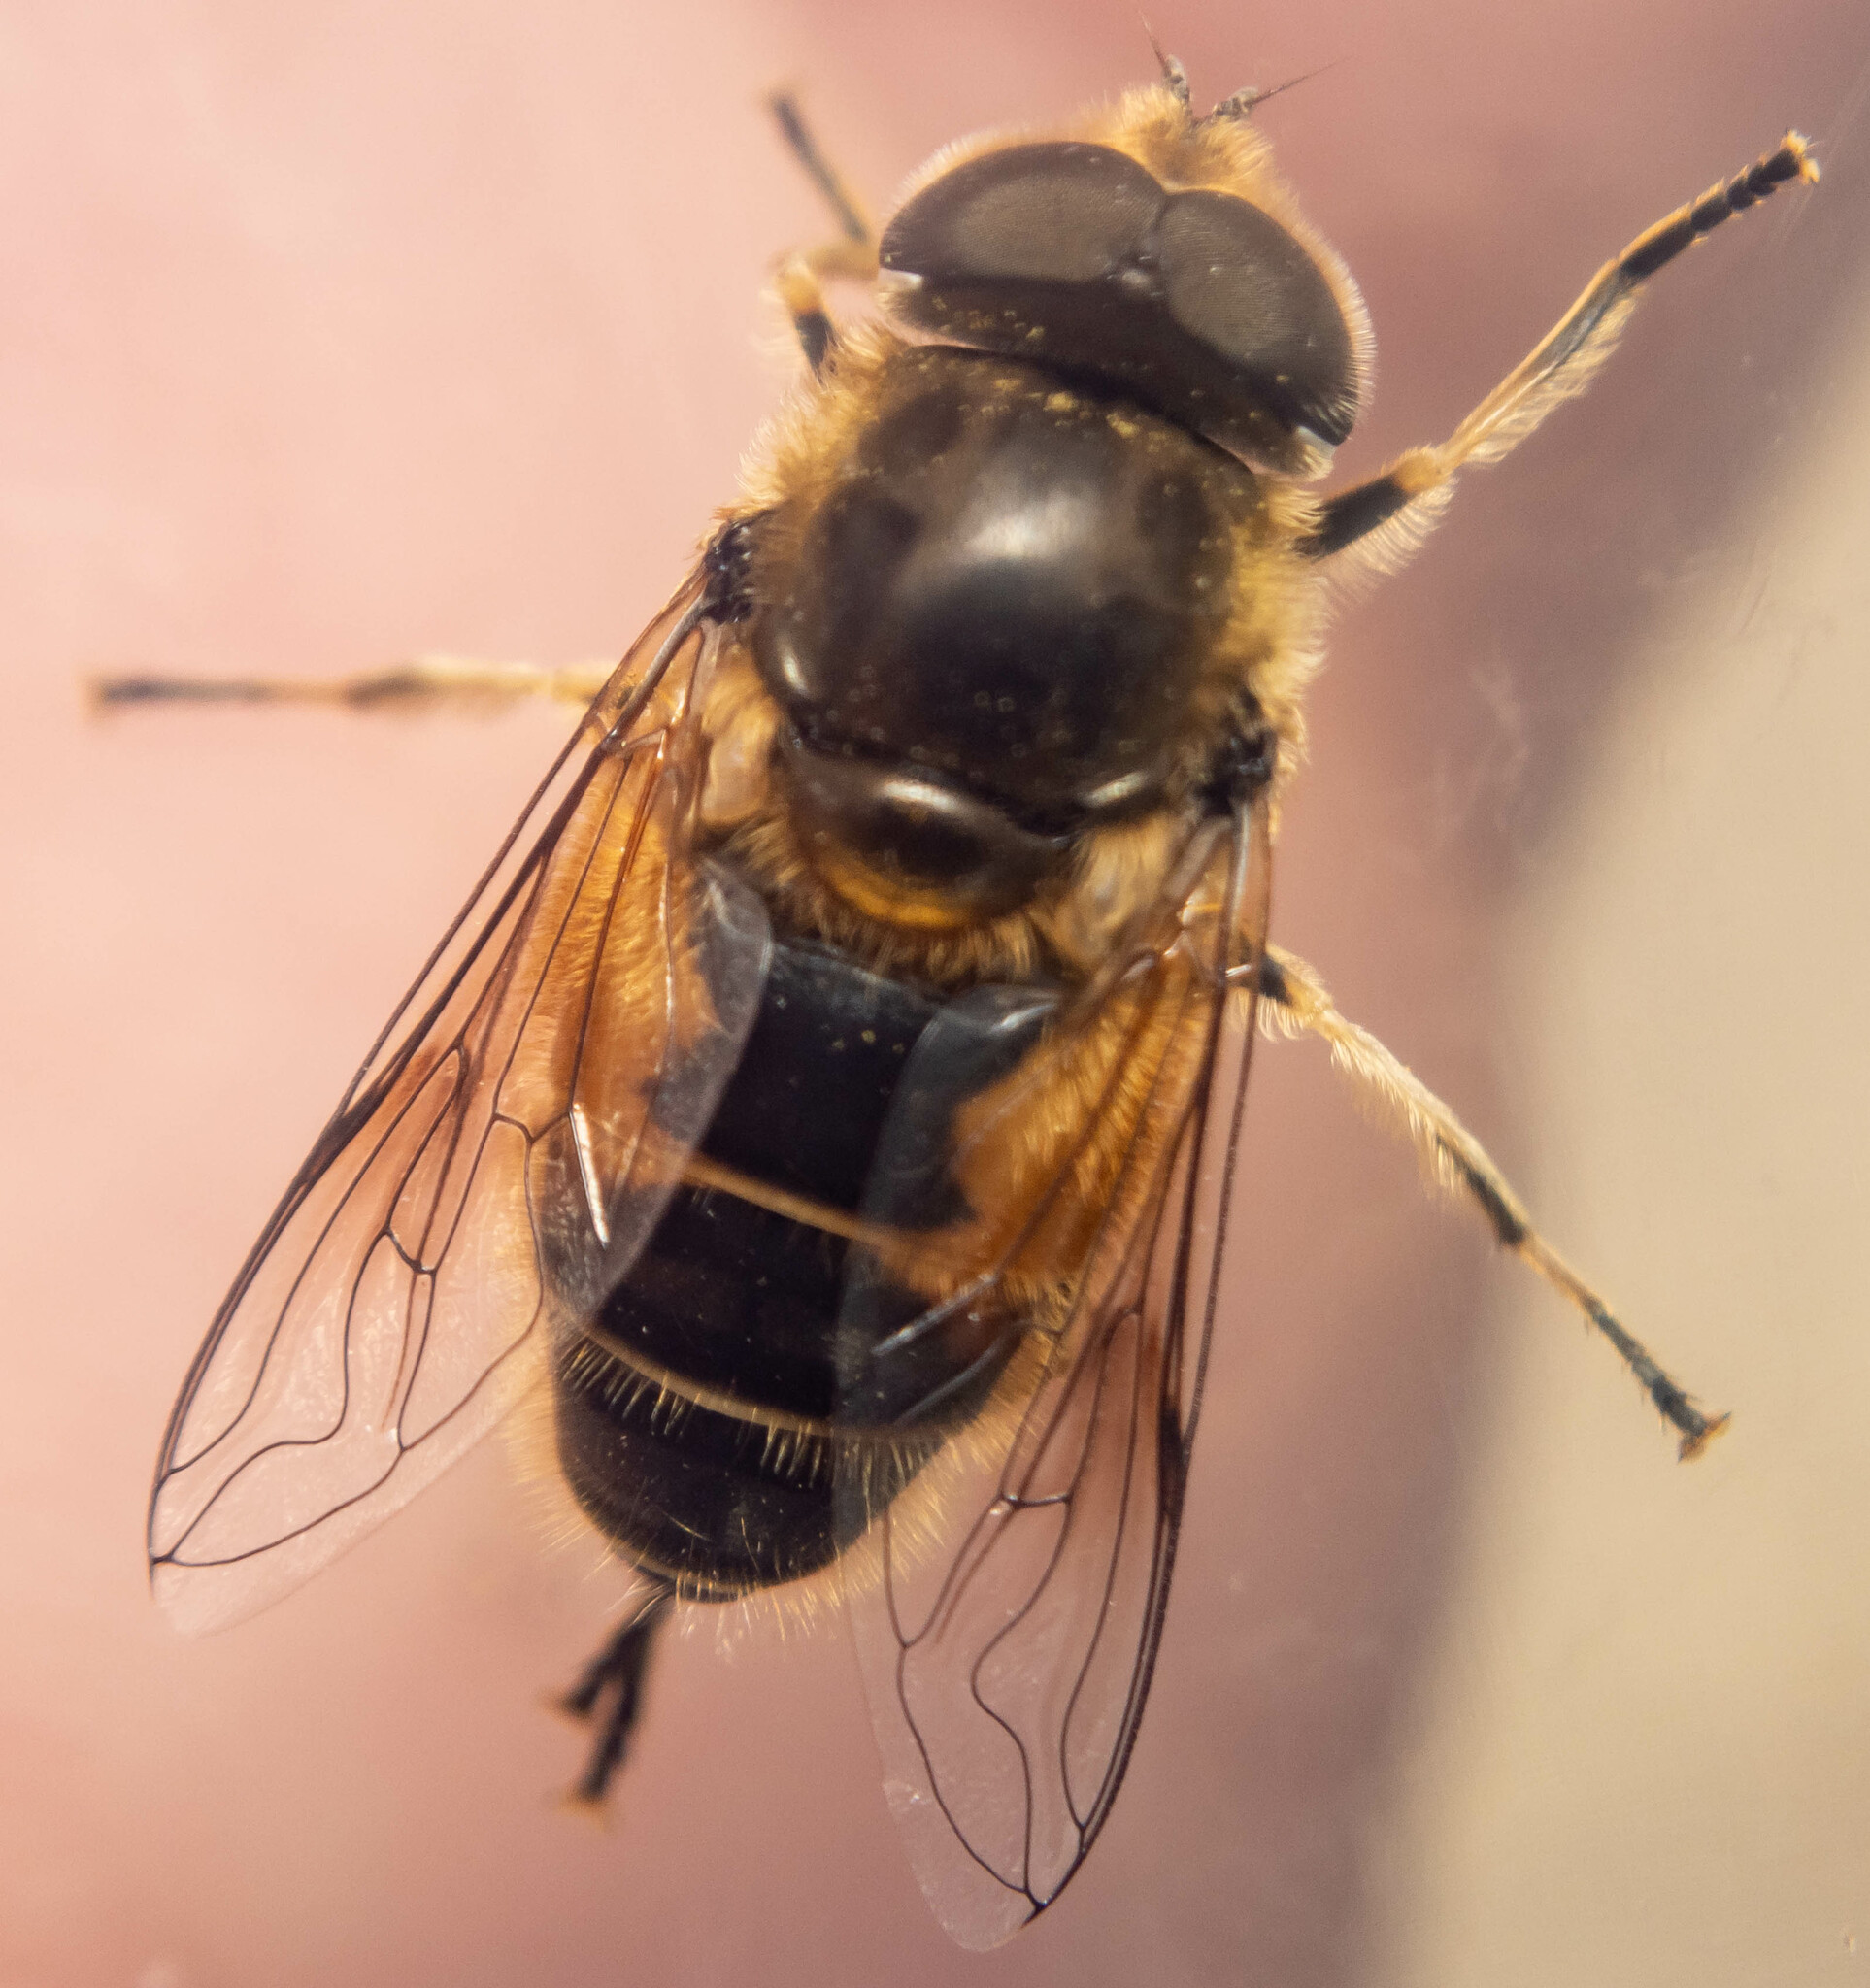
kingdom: Animalia
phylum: Arthropoda
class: Insecta
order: Diptera
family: Syrphidae
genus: Eristalis
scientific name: Eristalis arbustorum
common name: Hover fly
